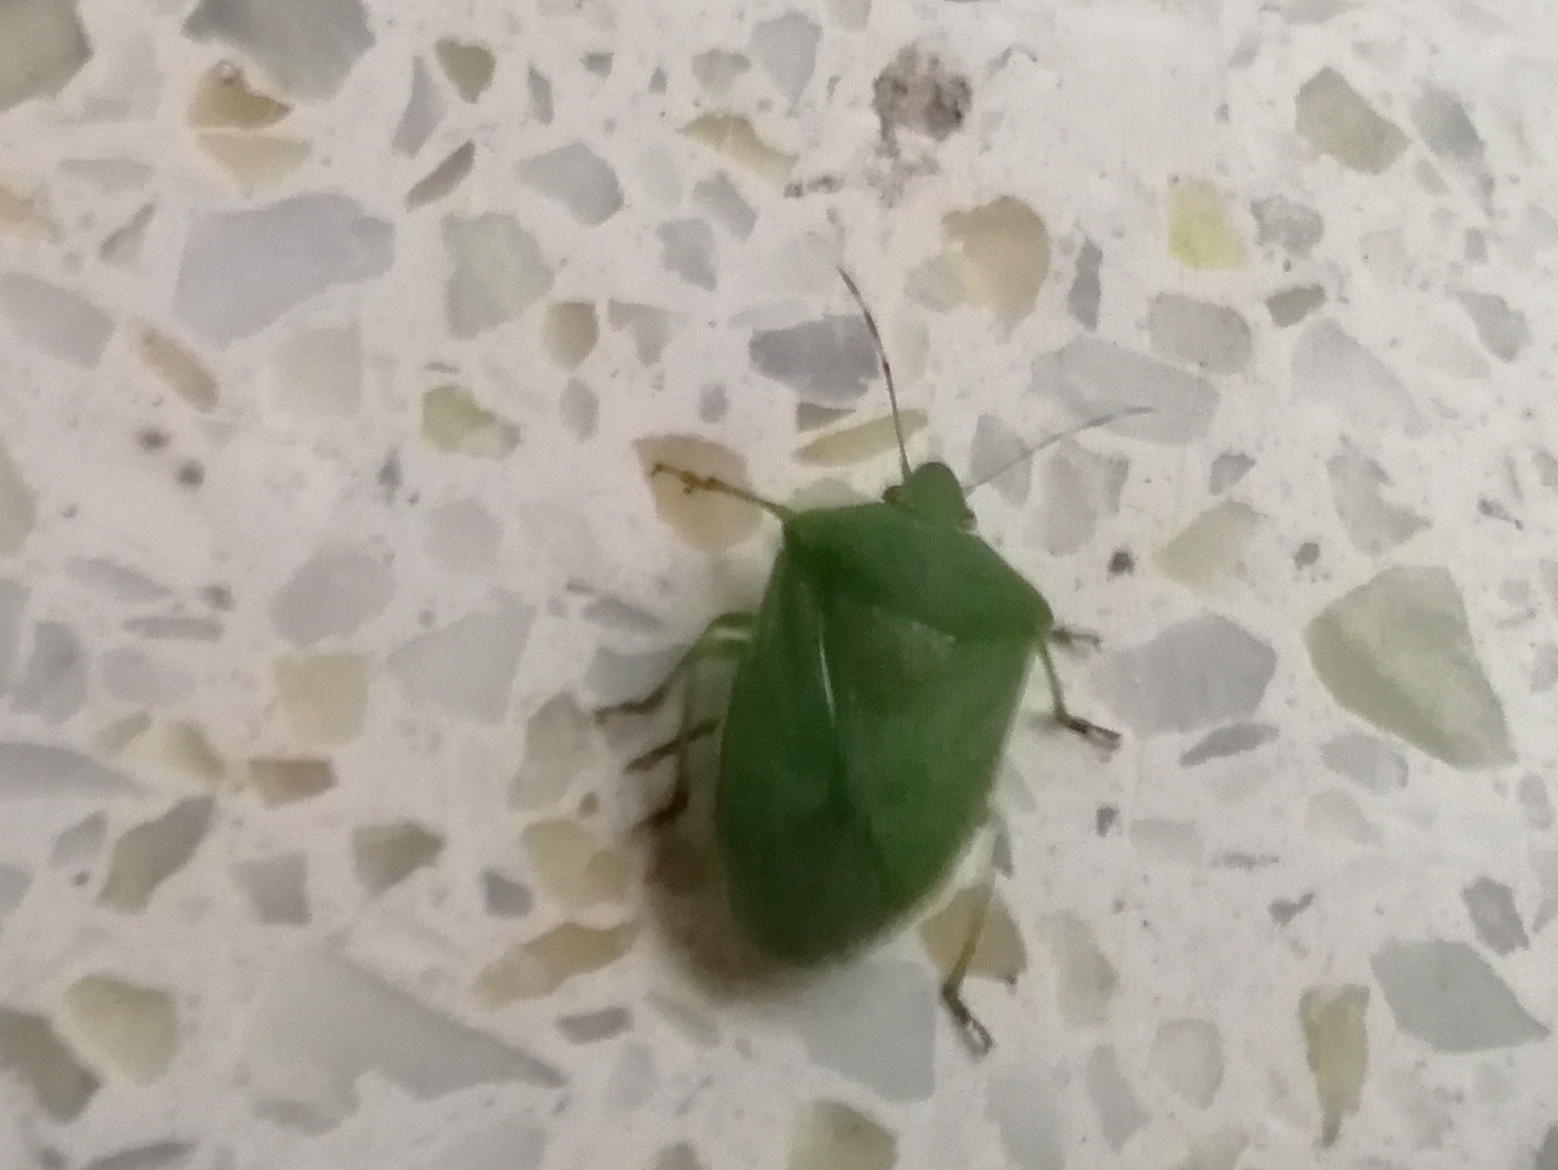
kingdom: Animalia
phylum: Arthropoda
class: Insecta
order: Hemiptera
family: Pentatomidae
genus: Nezara
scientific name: Nezara viridula
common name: Southern green stink bug
